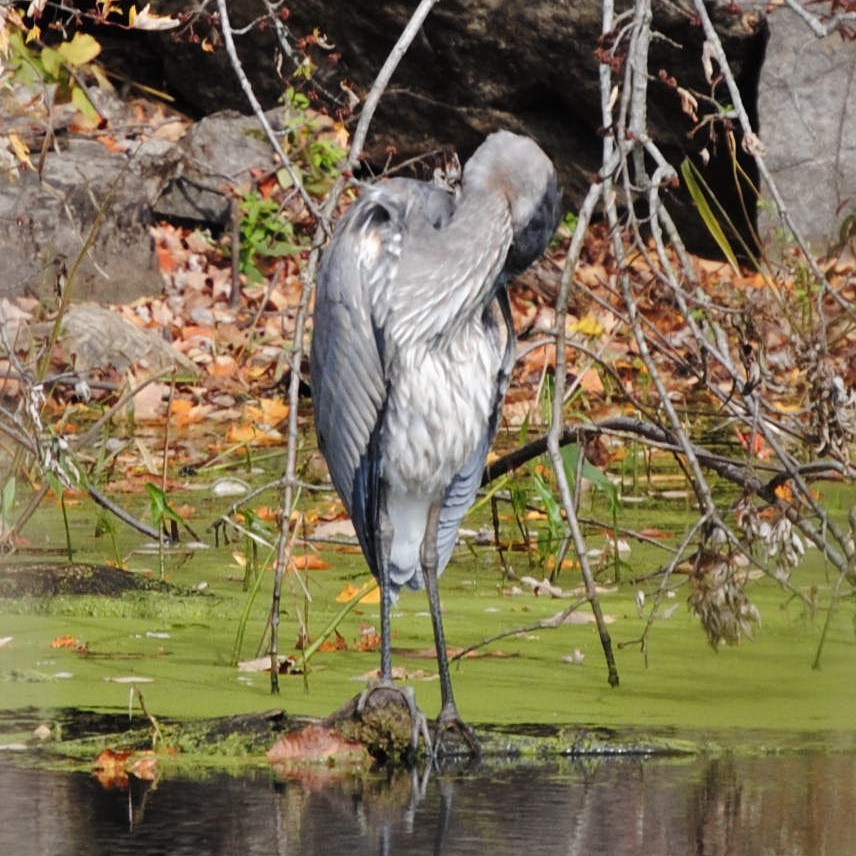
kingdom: Animalia
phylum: Chordata
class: Aves
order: Pelecaniformes
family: Ardeidae
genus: Ardea
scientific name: Ardea herodias
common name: Great blue heron
